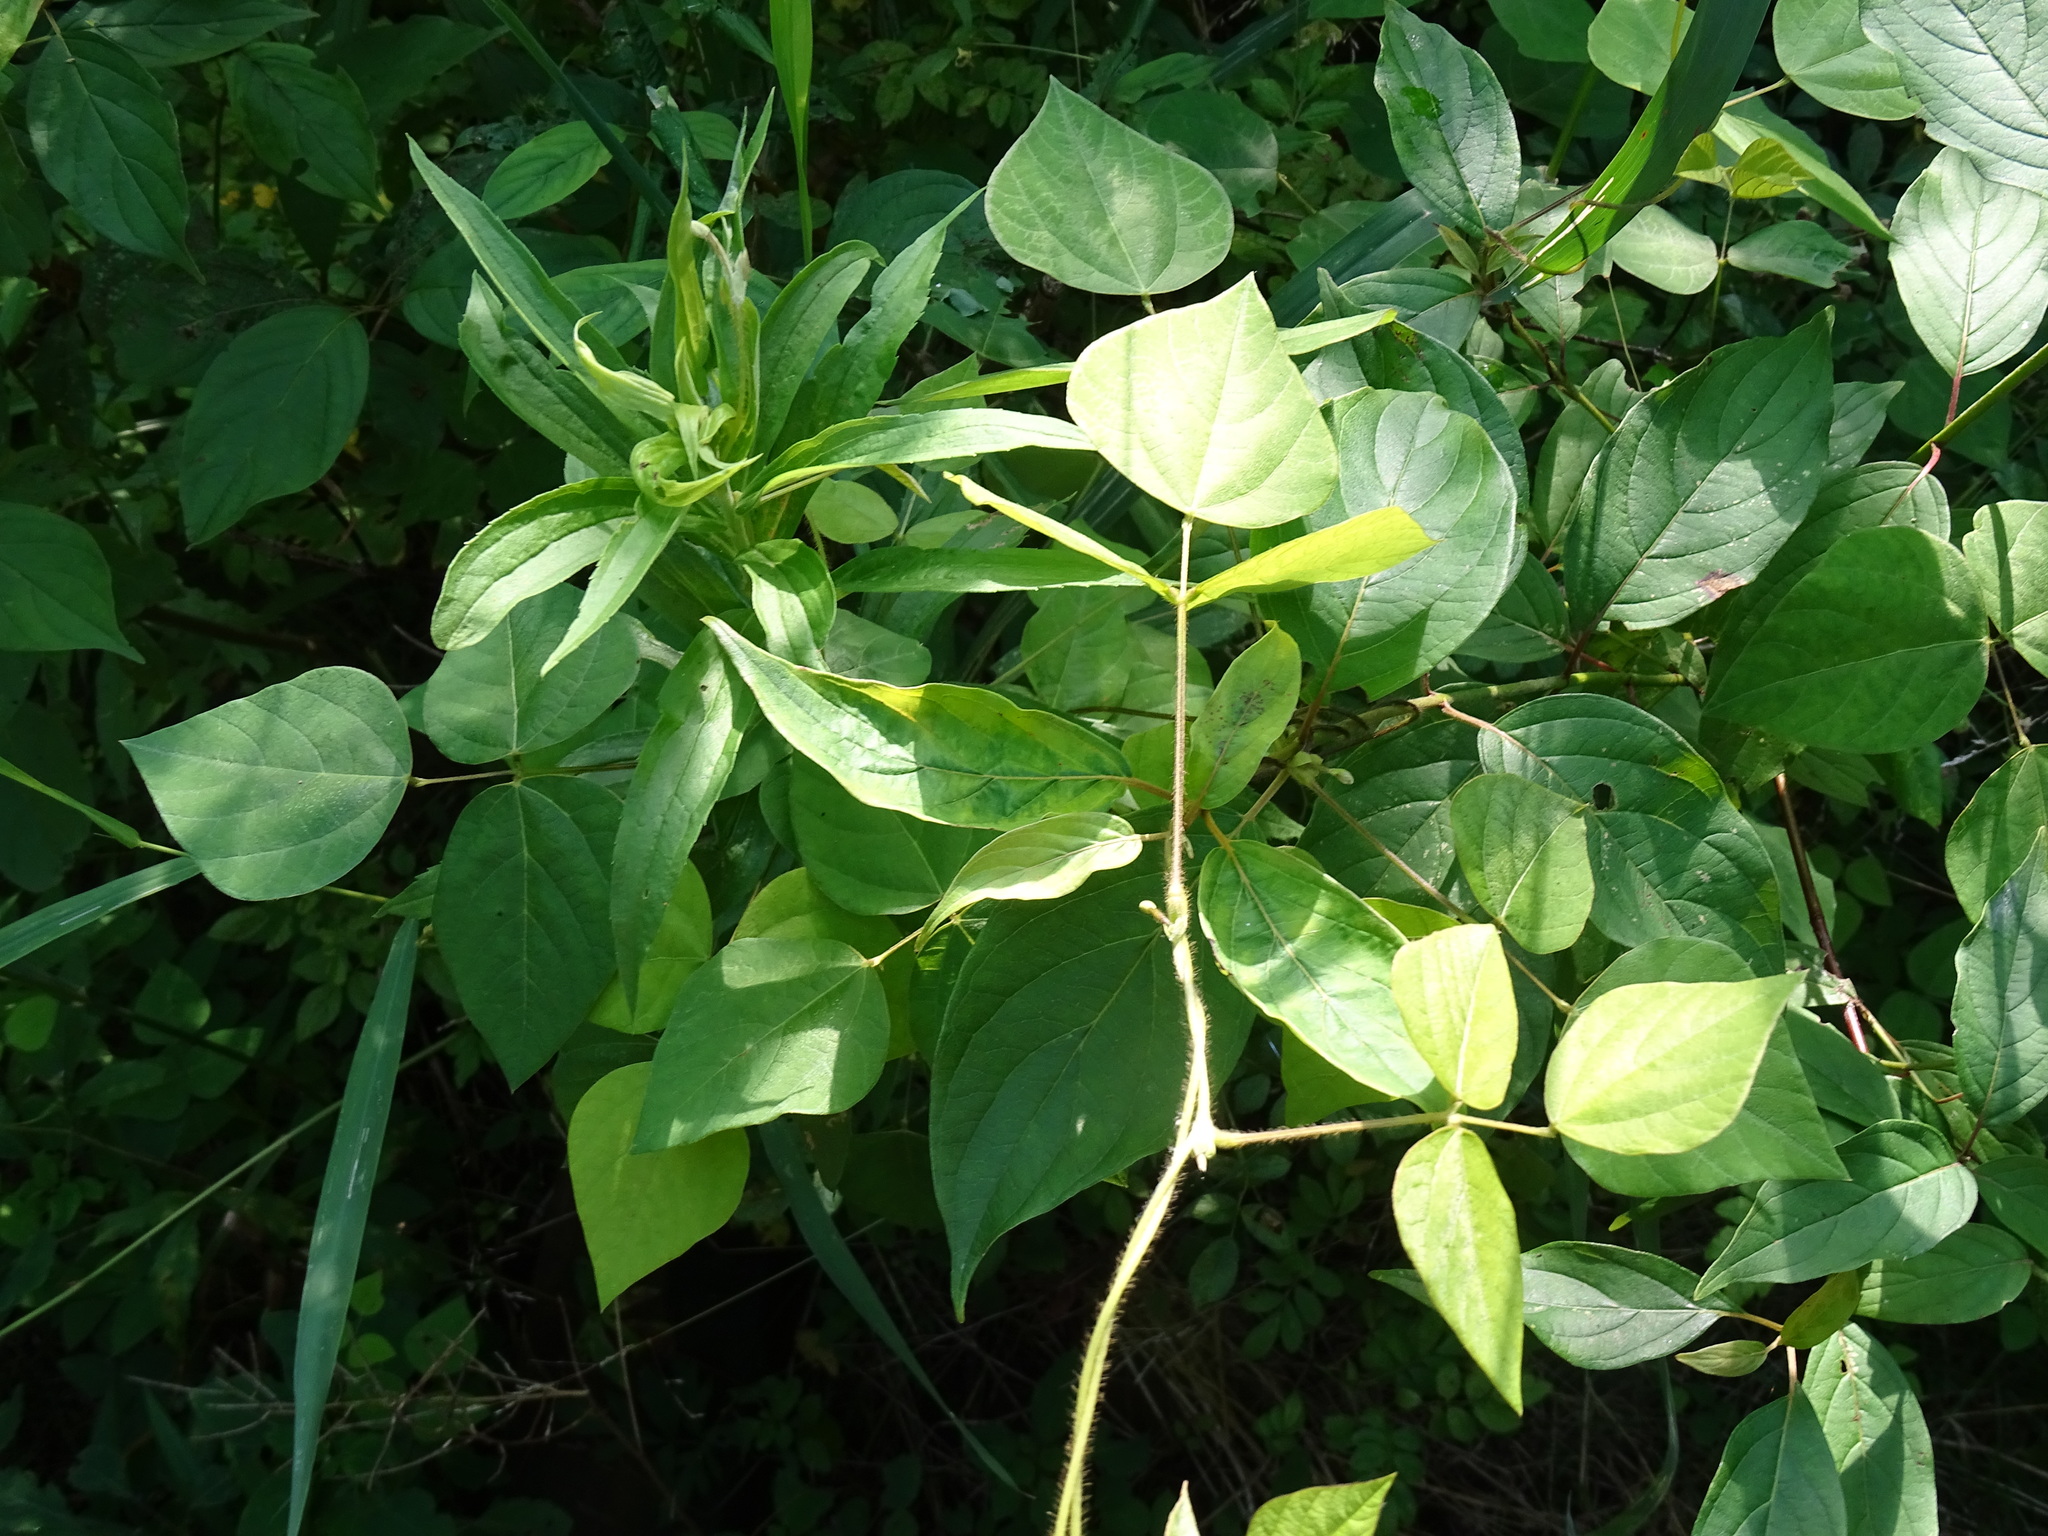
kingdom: Plantae
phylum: Tracheophyta
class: Magnoliopsida
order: Fabales
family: Fabaceae
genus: Amphicarpaea
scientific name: Amphicarpaea bracteata
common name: American hog peanut
